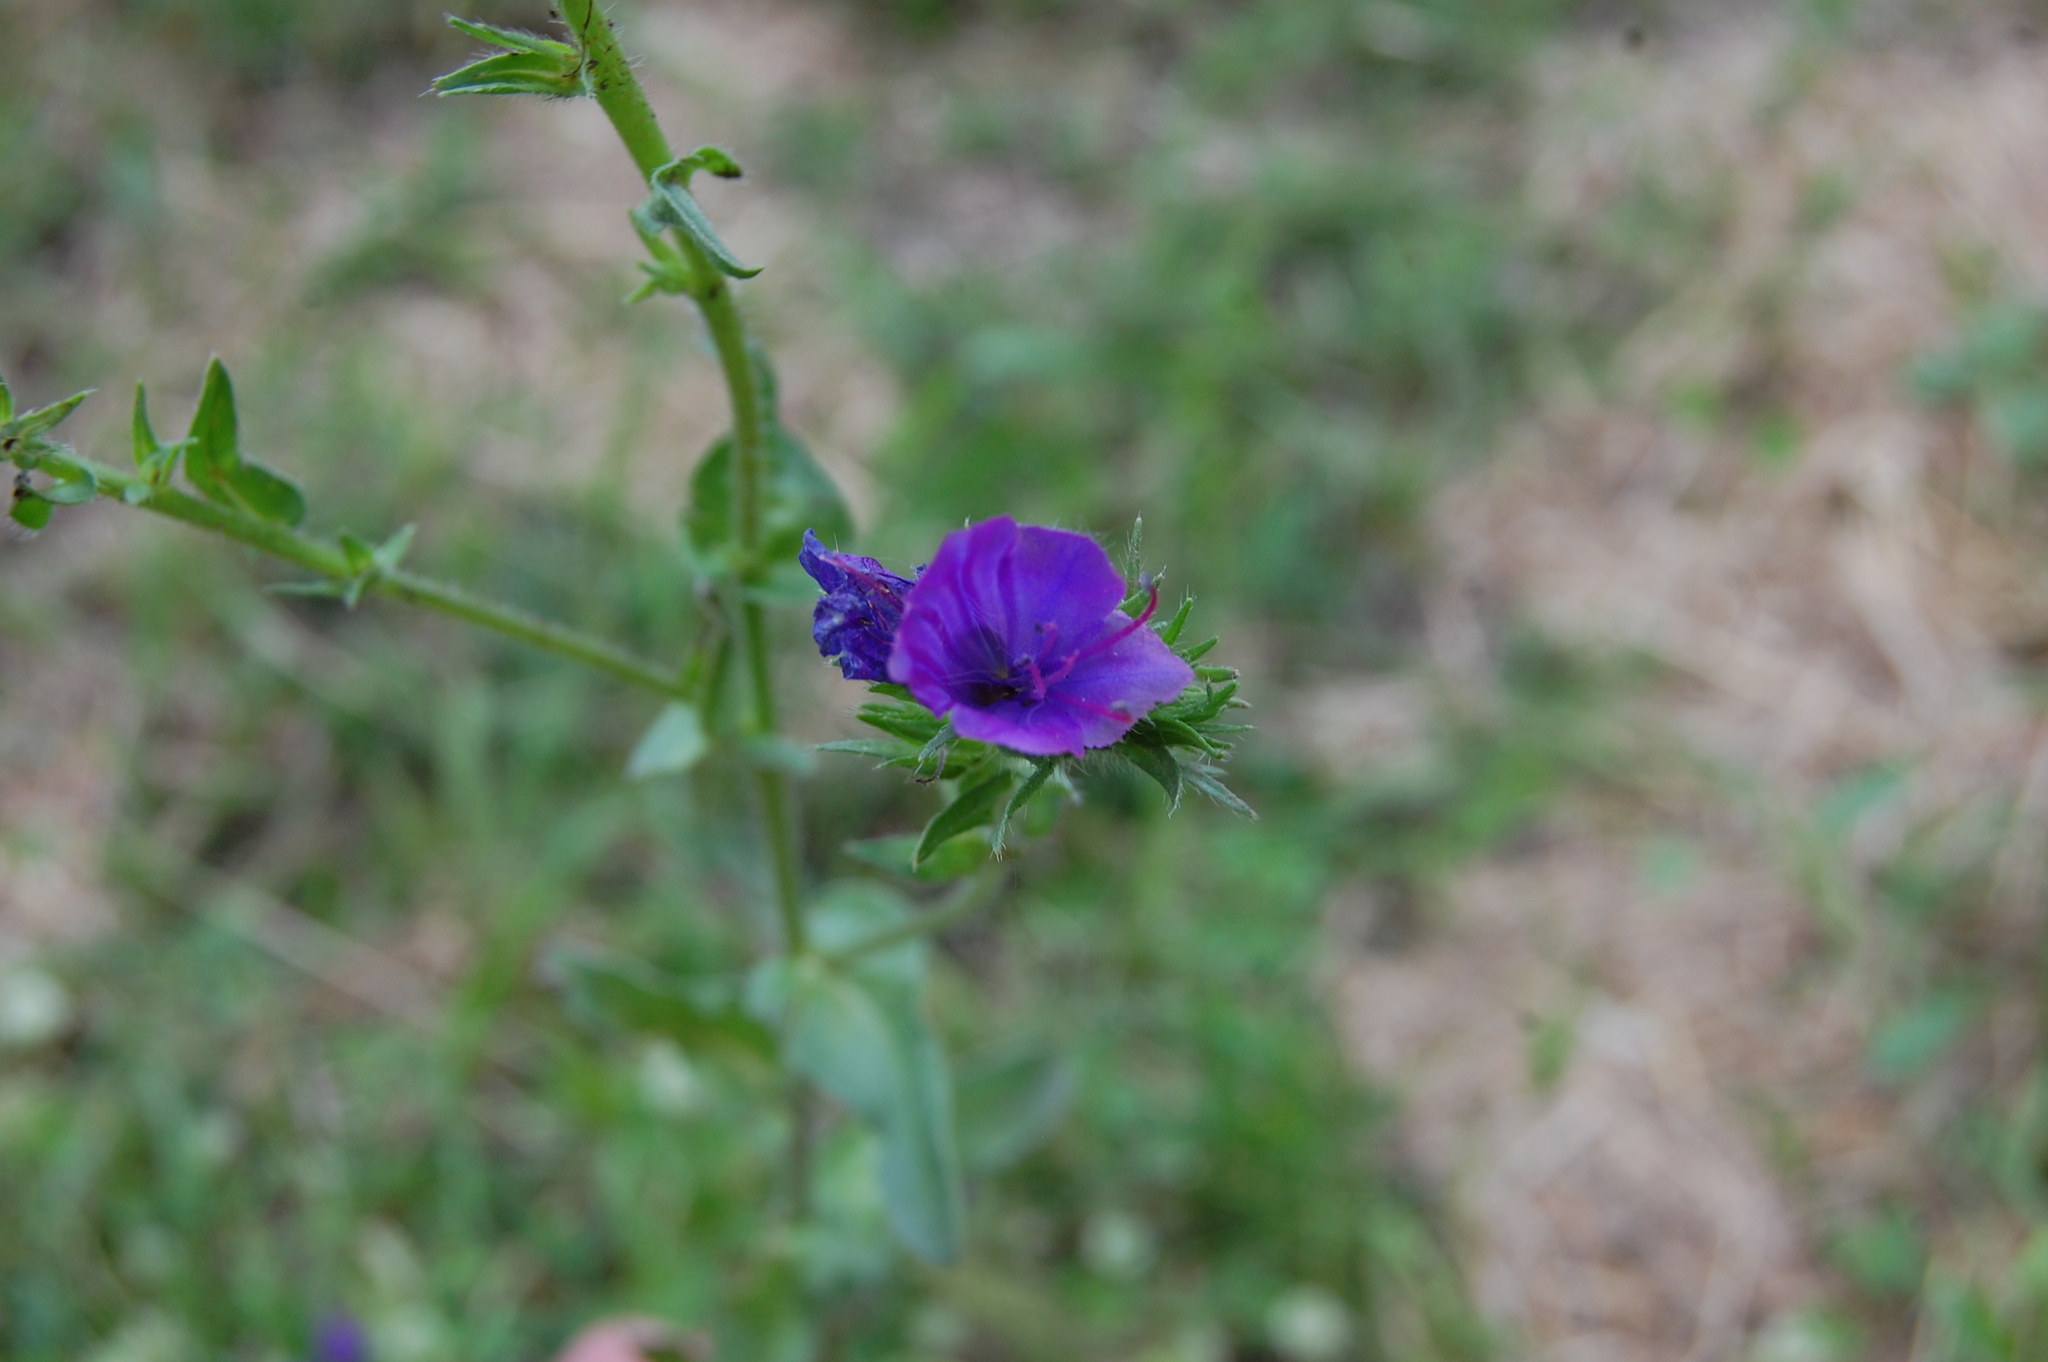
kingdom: Plantae
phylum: Tracheophyta
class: Magnoliopsida
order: Boraginales
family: Boraginaceae
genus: Echium
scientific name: Echium plantagineum
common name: Purple viper's-bugloss
